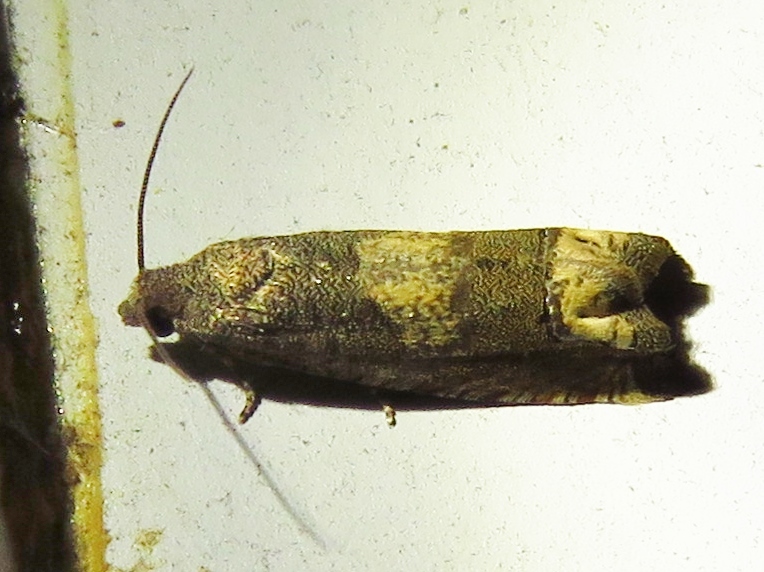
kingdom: Animalia
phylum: Arthropoda
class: Insecta
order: Lepidoptera
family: Tortricidae
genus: Epiblema
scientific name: Epiblema strenuana
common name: Ragweed borer moth
